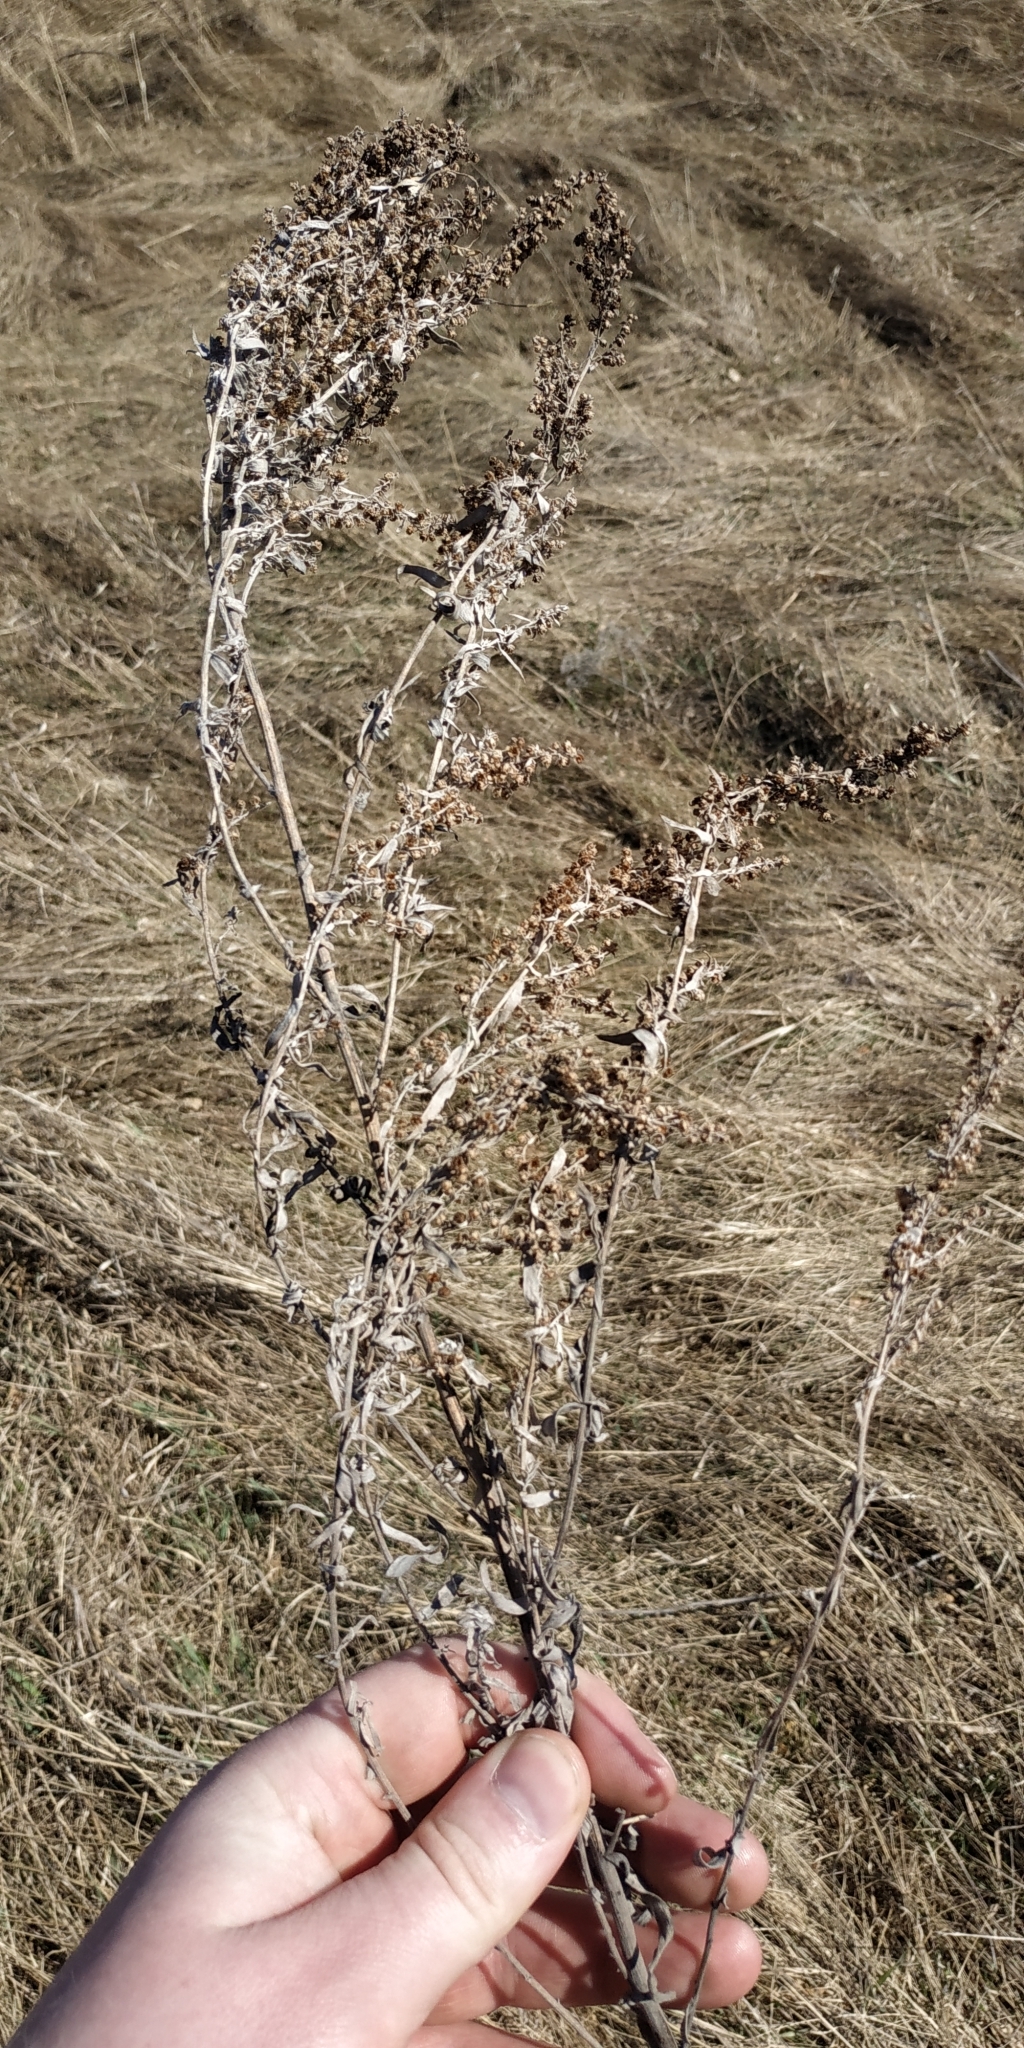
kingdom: Plantae
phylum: Tracheophyta
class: Magnoliopsida
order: Asterales
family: Asteraceae
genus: Artemisia
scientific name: Artemisia glauca
